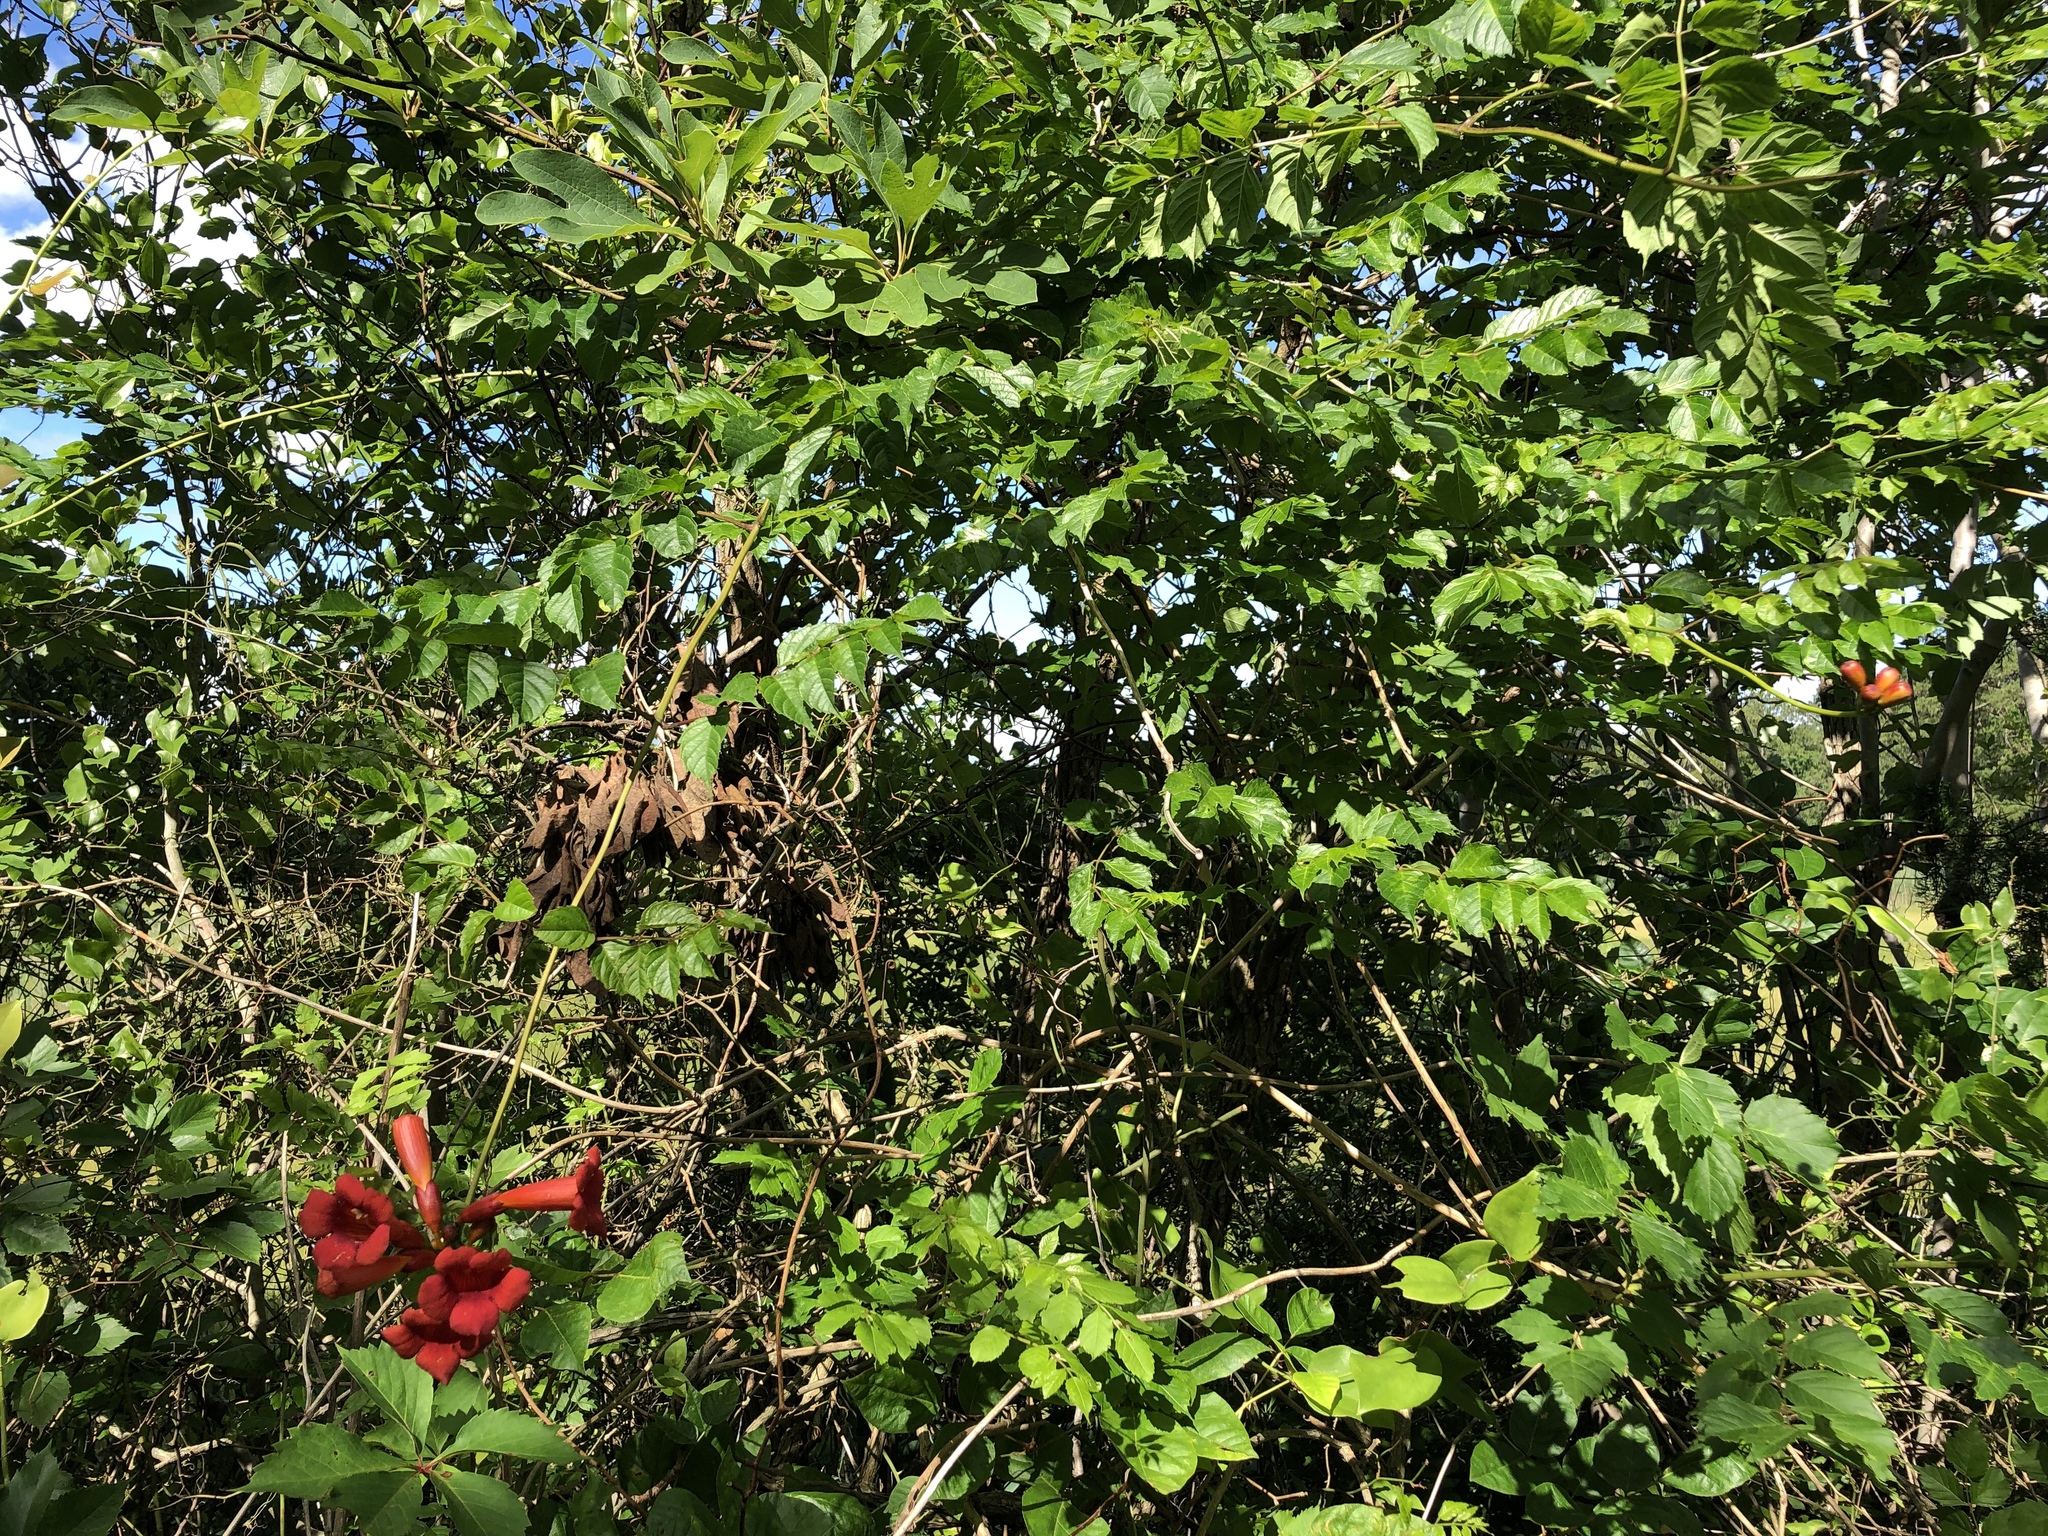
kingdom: Plantae
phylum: Tracheophyta
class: Magnoliopsida
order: Lamiales
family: Bignoniaceae
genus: Campsis
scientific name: Campsis radicans
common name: Trumpet-creeper
